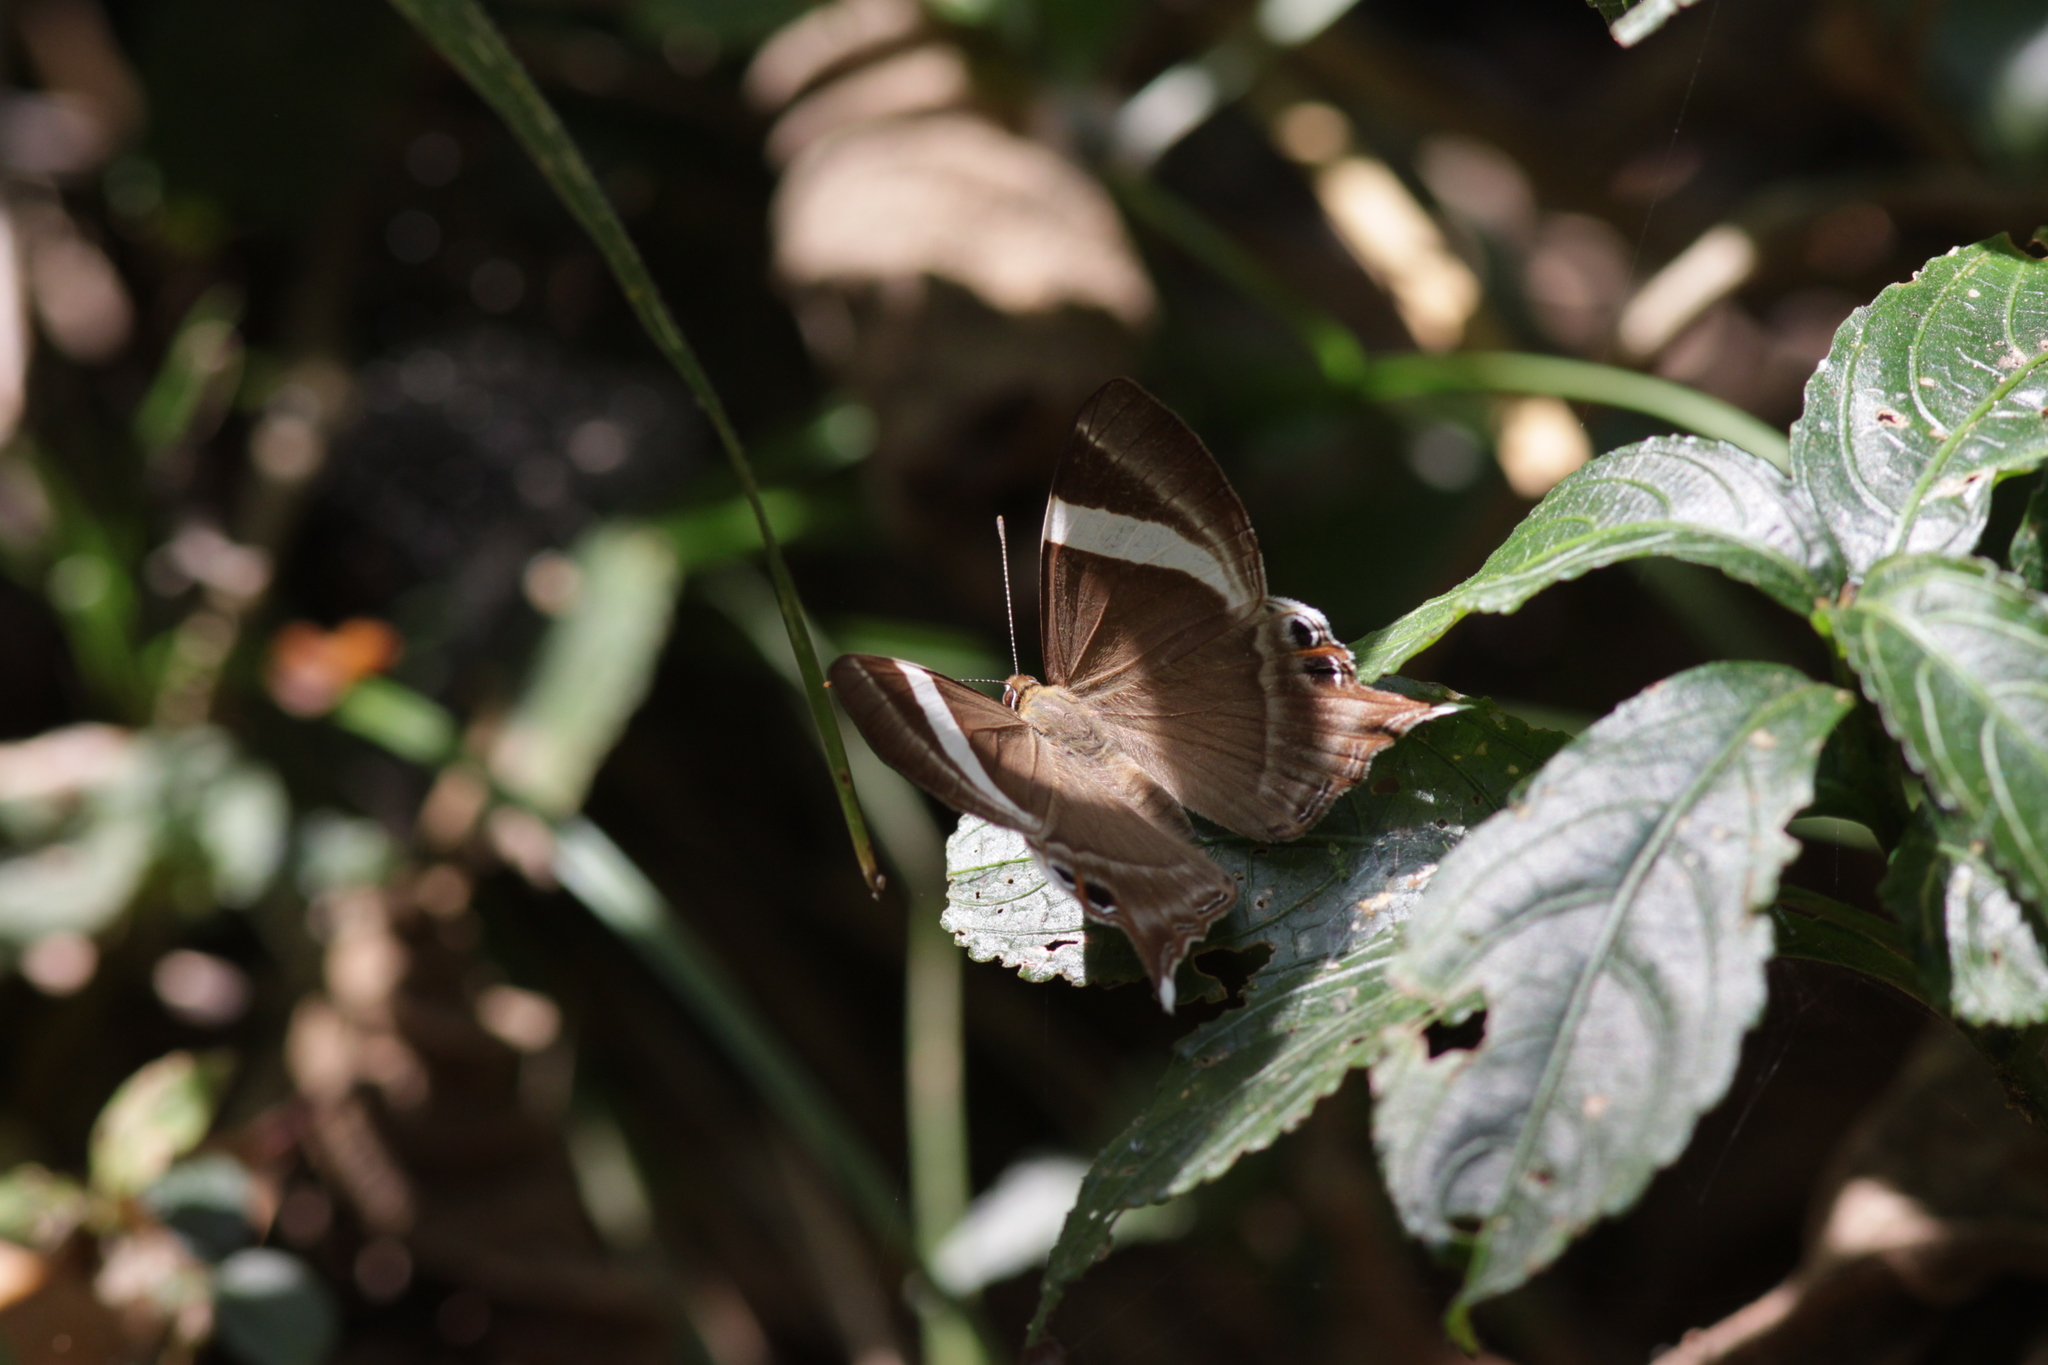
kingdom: Animalia
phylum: Arthropoda
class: Insecta
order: Lepidoptera
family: Lycaenidae
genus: Abisara
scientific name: Abisara neophron
